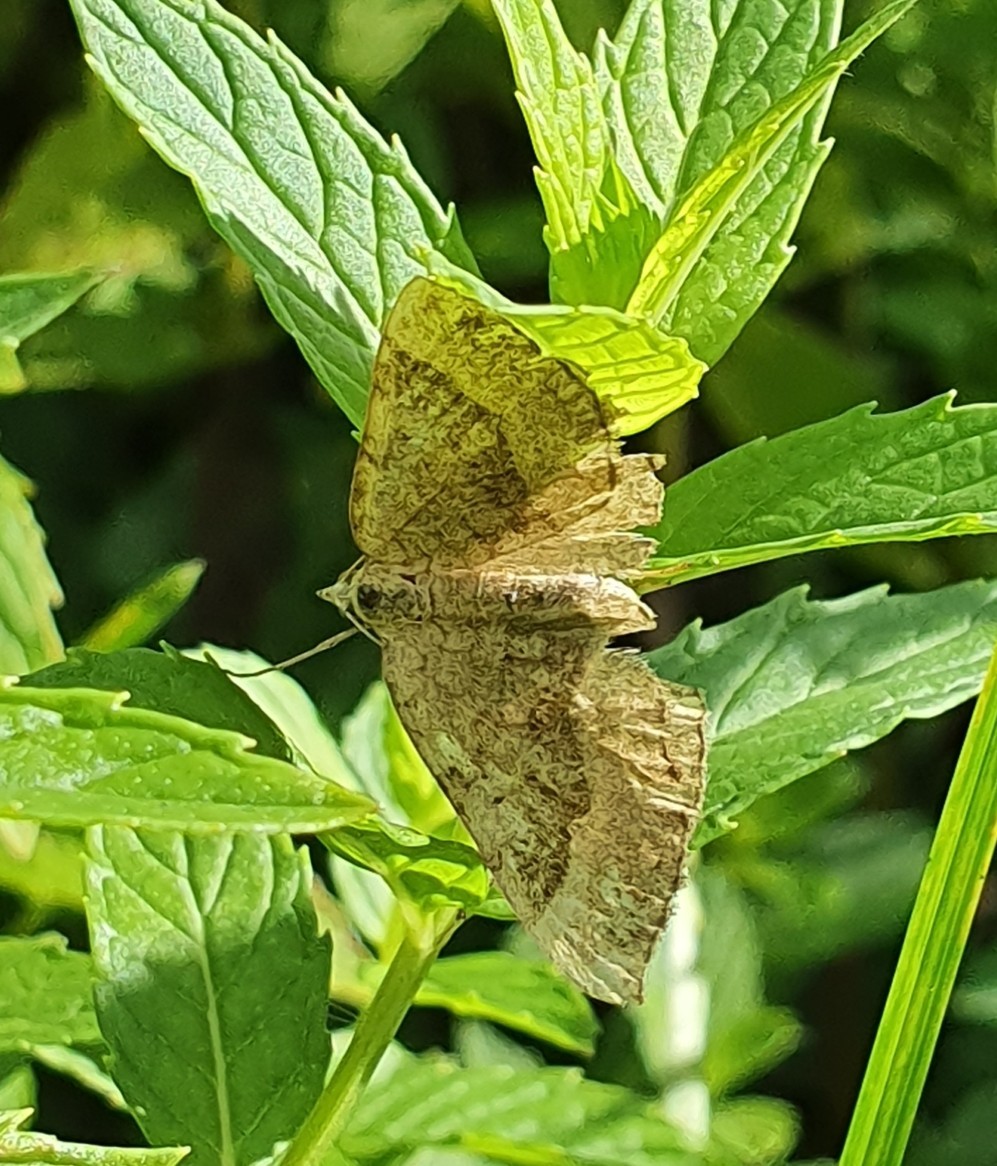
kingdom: Animalia
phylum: Arthropoda
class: Insecta
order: Lepidoptera
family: Geometridae
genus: Scotopteryx
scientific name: Scotopteryx chenopodiata
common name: Shaded broad-bar
